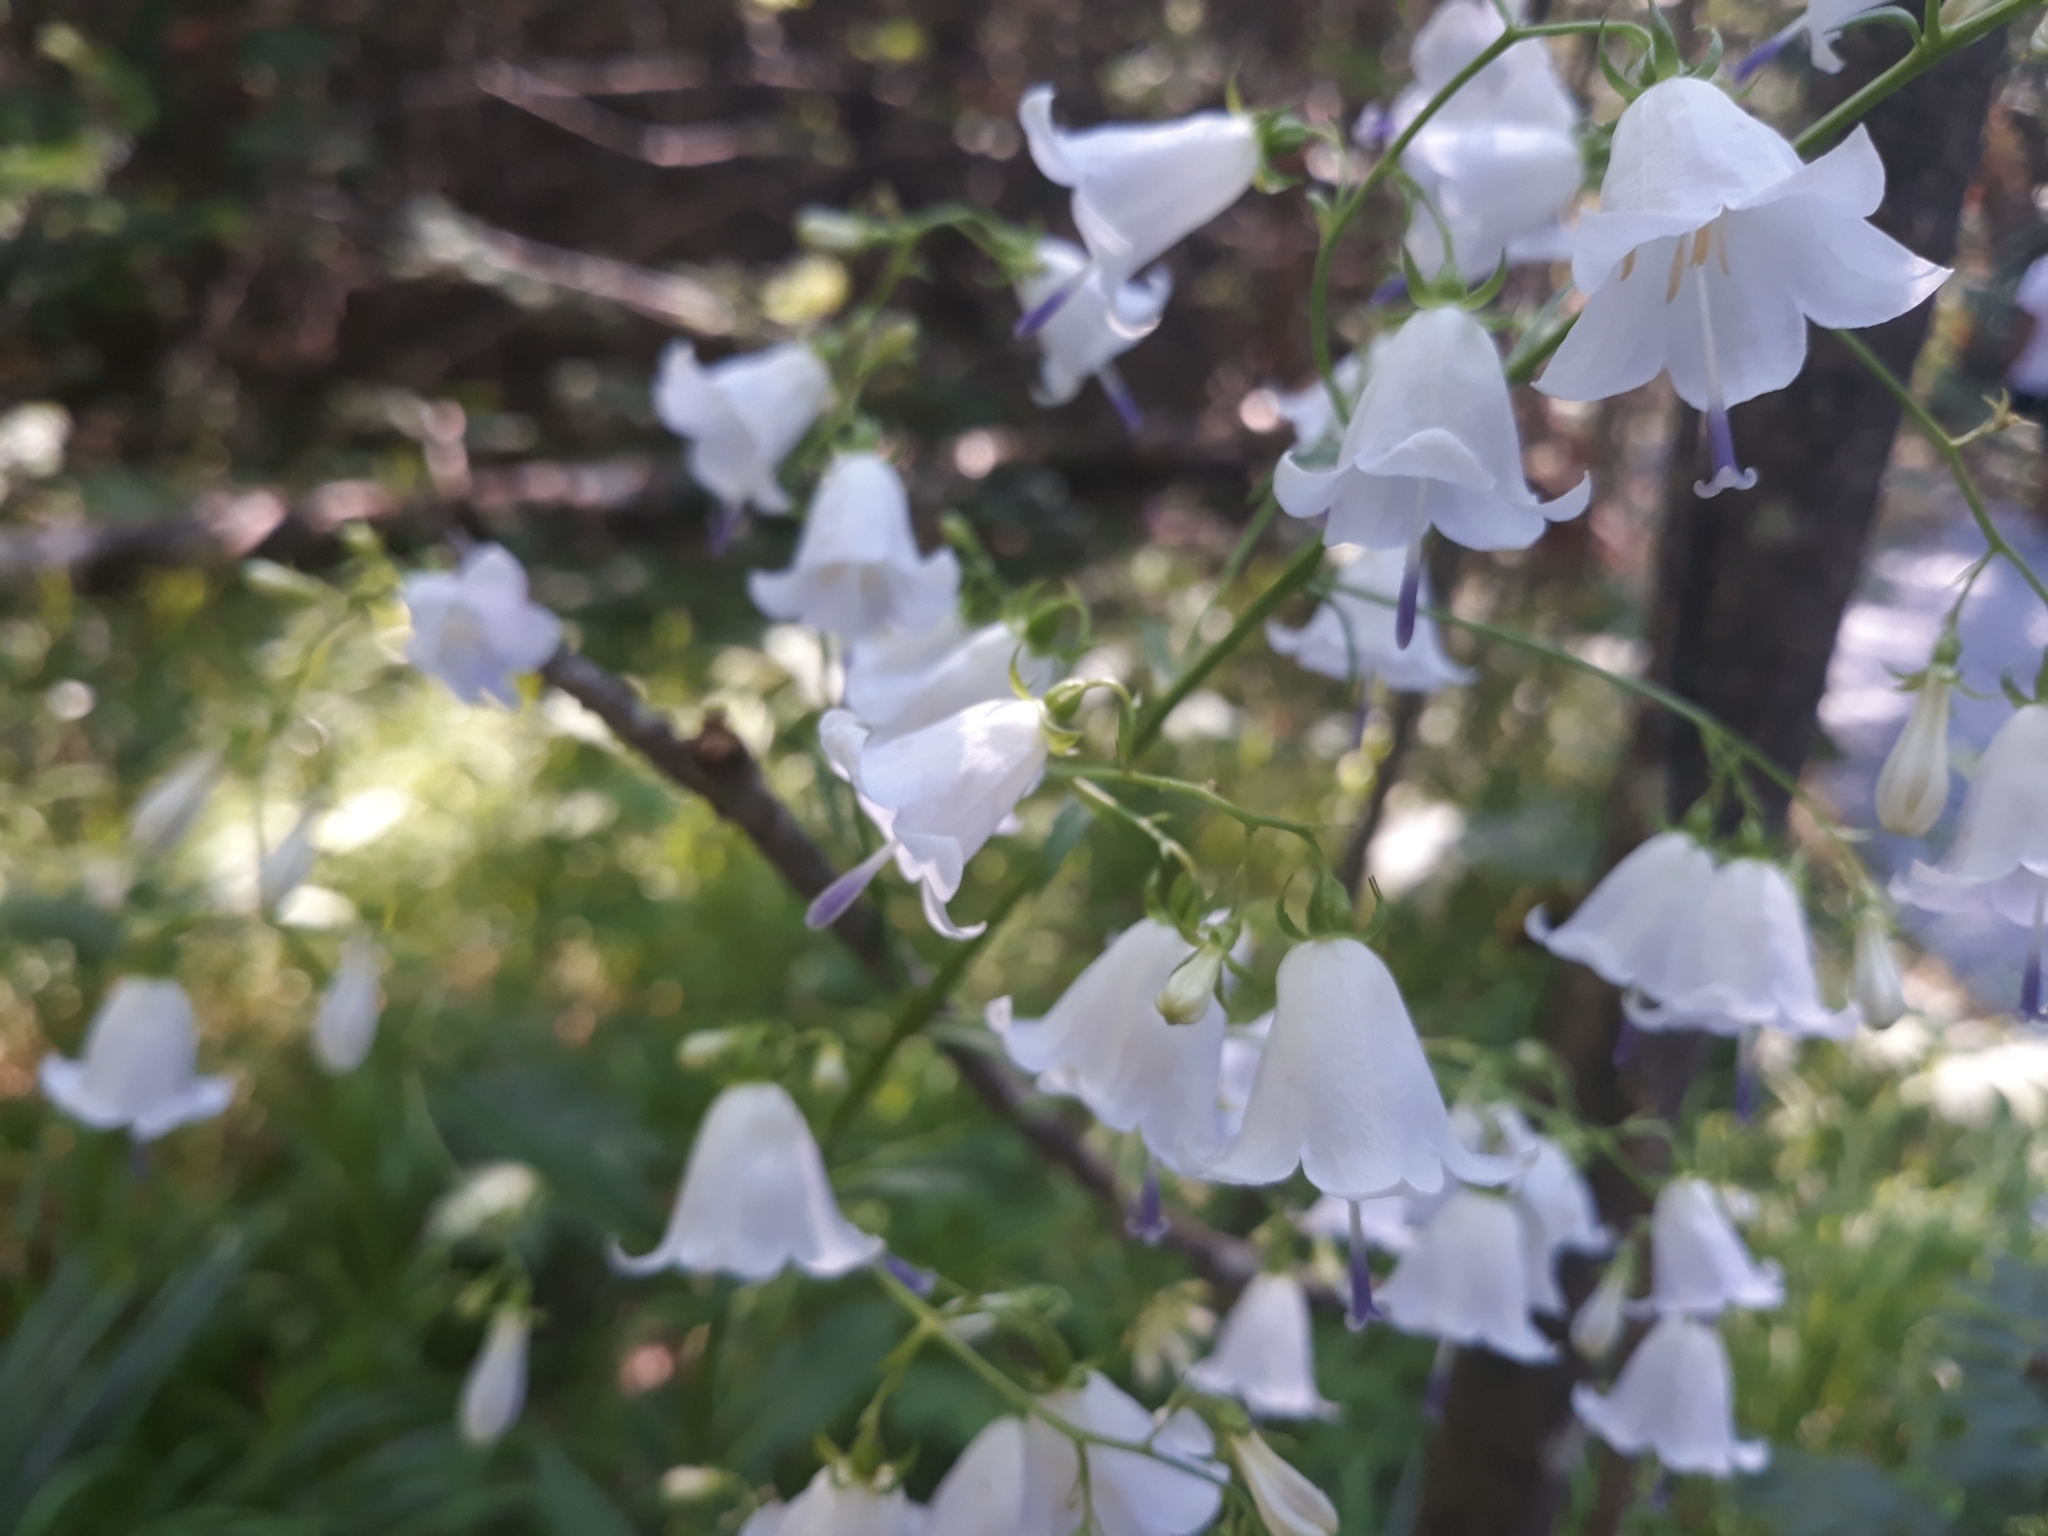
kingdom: Plantae
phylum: Tracheophyta
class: Magnoliopsida
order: Asterales
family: Campanulaceae
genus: Adenophora
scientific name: Adenophora liliifolia
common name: Lilyleaf ladybells
